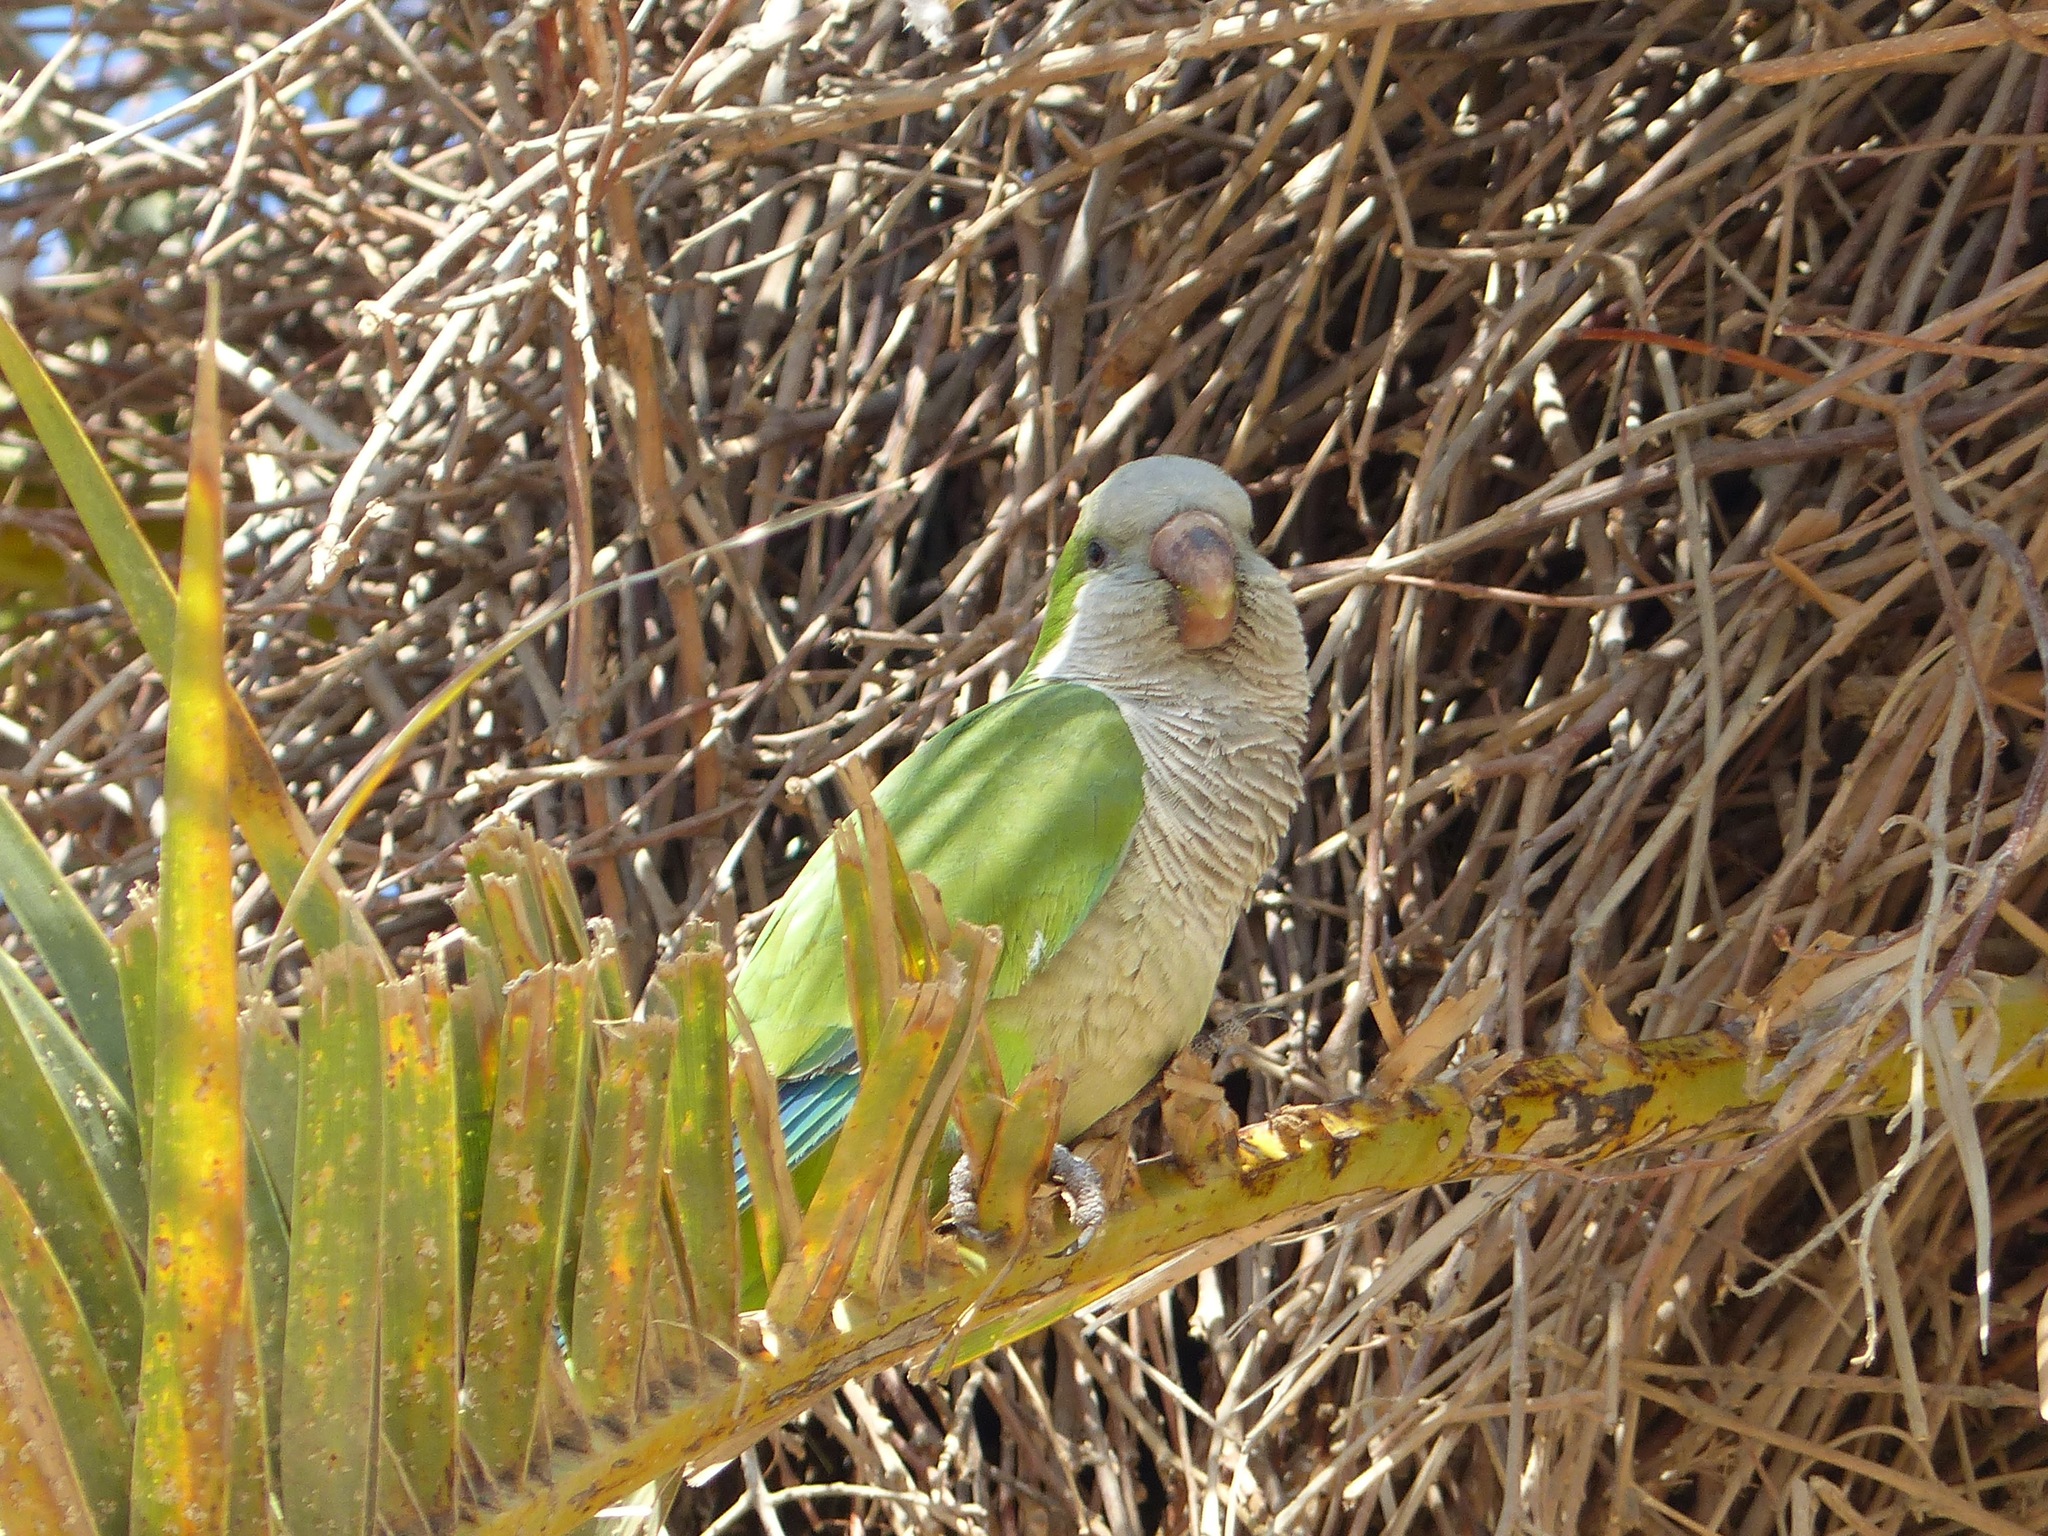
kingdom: Animalia
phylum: Chordata
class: Aves
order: Psittaciformes
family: Psittacidae
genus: Myiopsitta
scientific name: Myiopsitta monachus
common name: Monk parakeet
